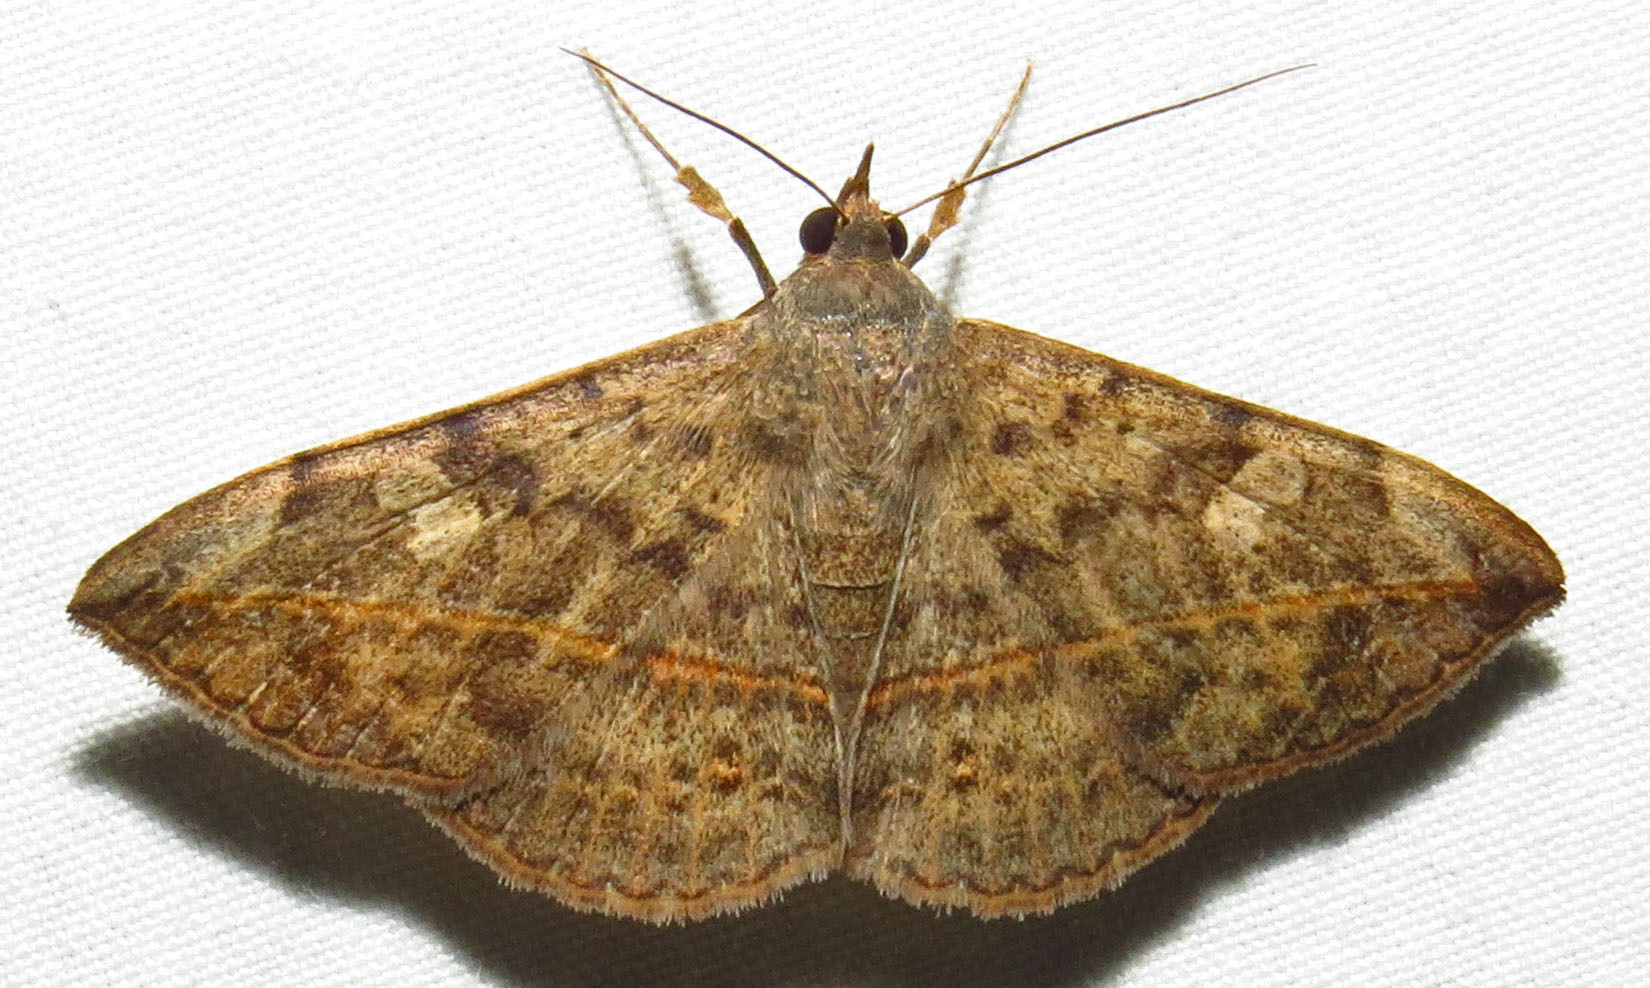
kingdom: Animalia
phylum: Arthropoda
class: Insecta
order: Lepidoptera
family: Erebidae
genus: Anticarsia
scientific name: Anticarsia gemmatalis
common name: Cutworm moth
